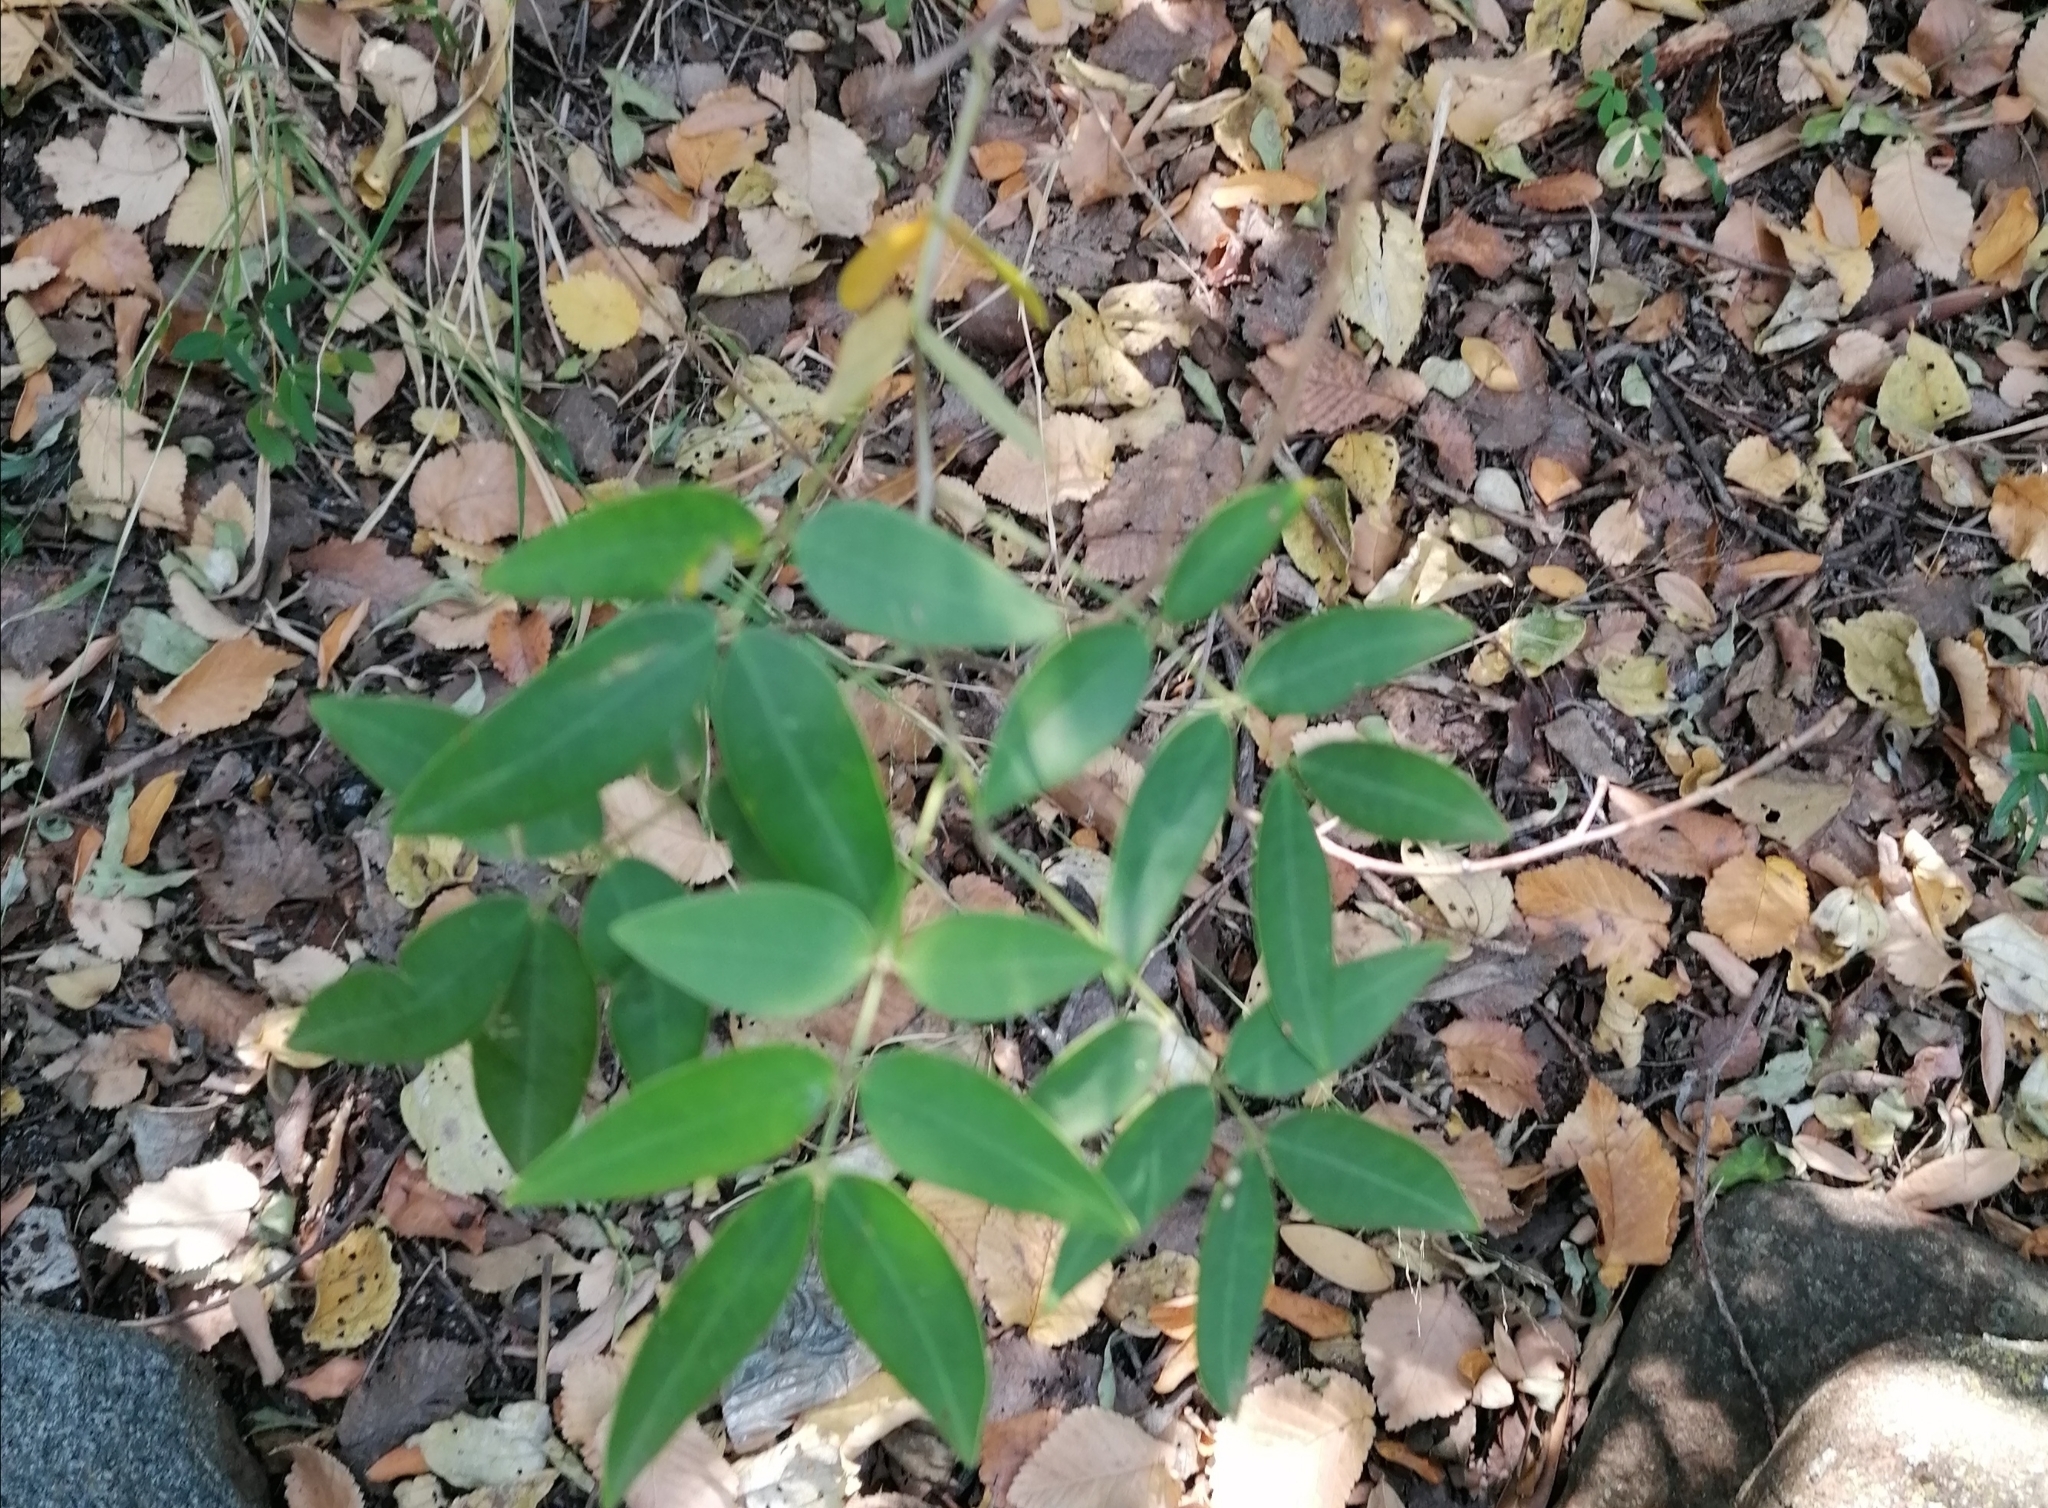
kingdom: Plantae
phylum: Tracheophyta
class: Magnoliopsida
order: Fabales
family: Fabaceae
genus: Senna
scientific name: Senna corymbosa
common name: Argentine senna
